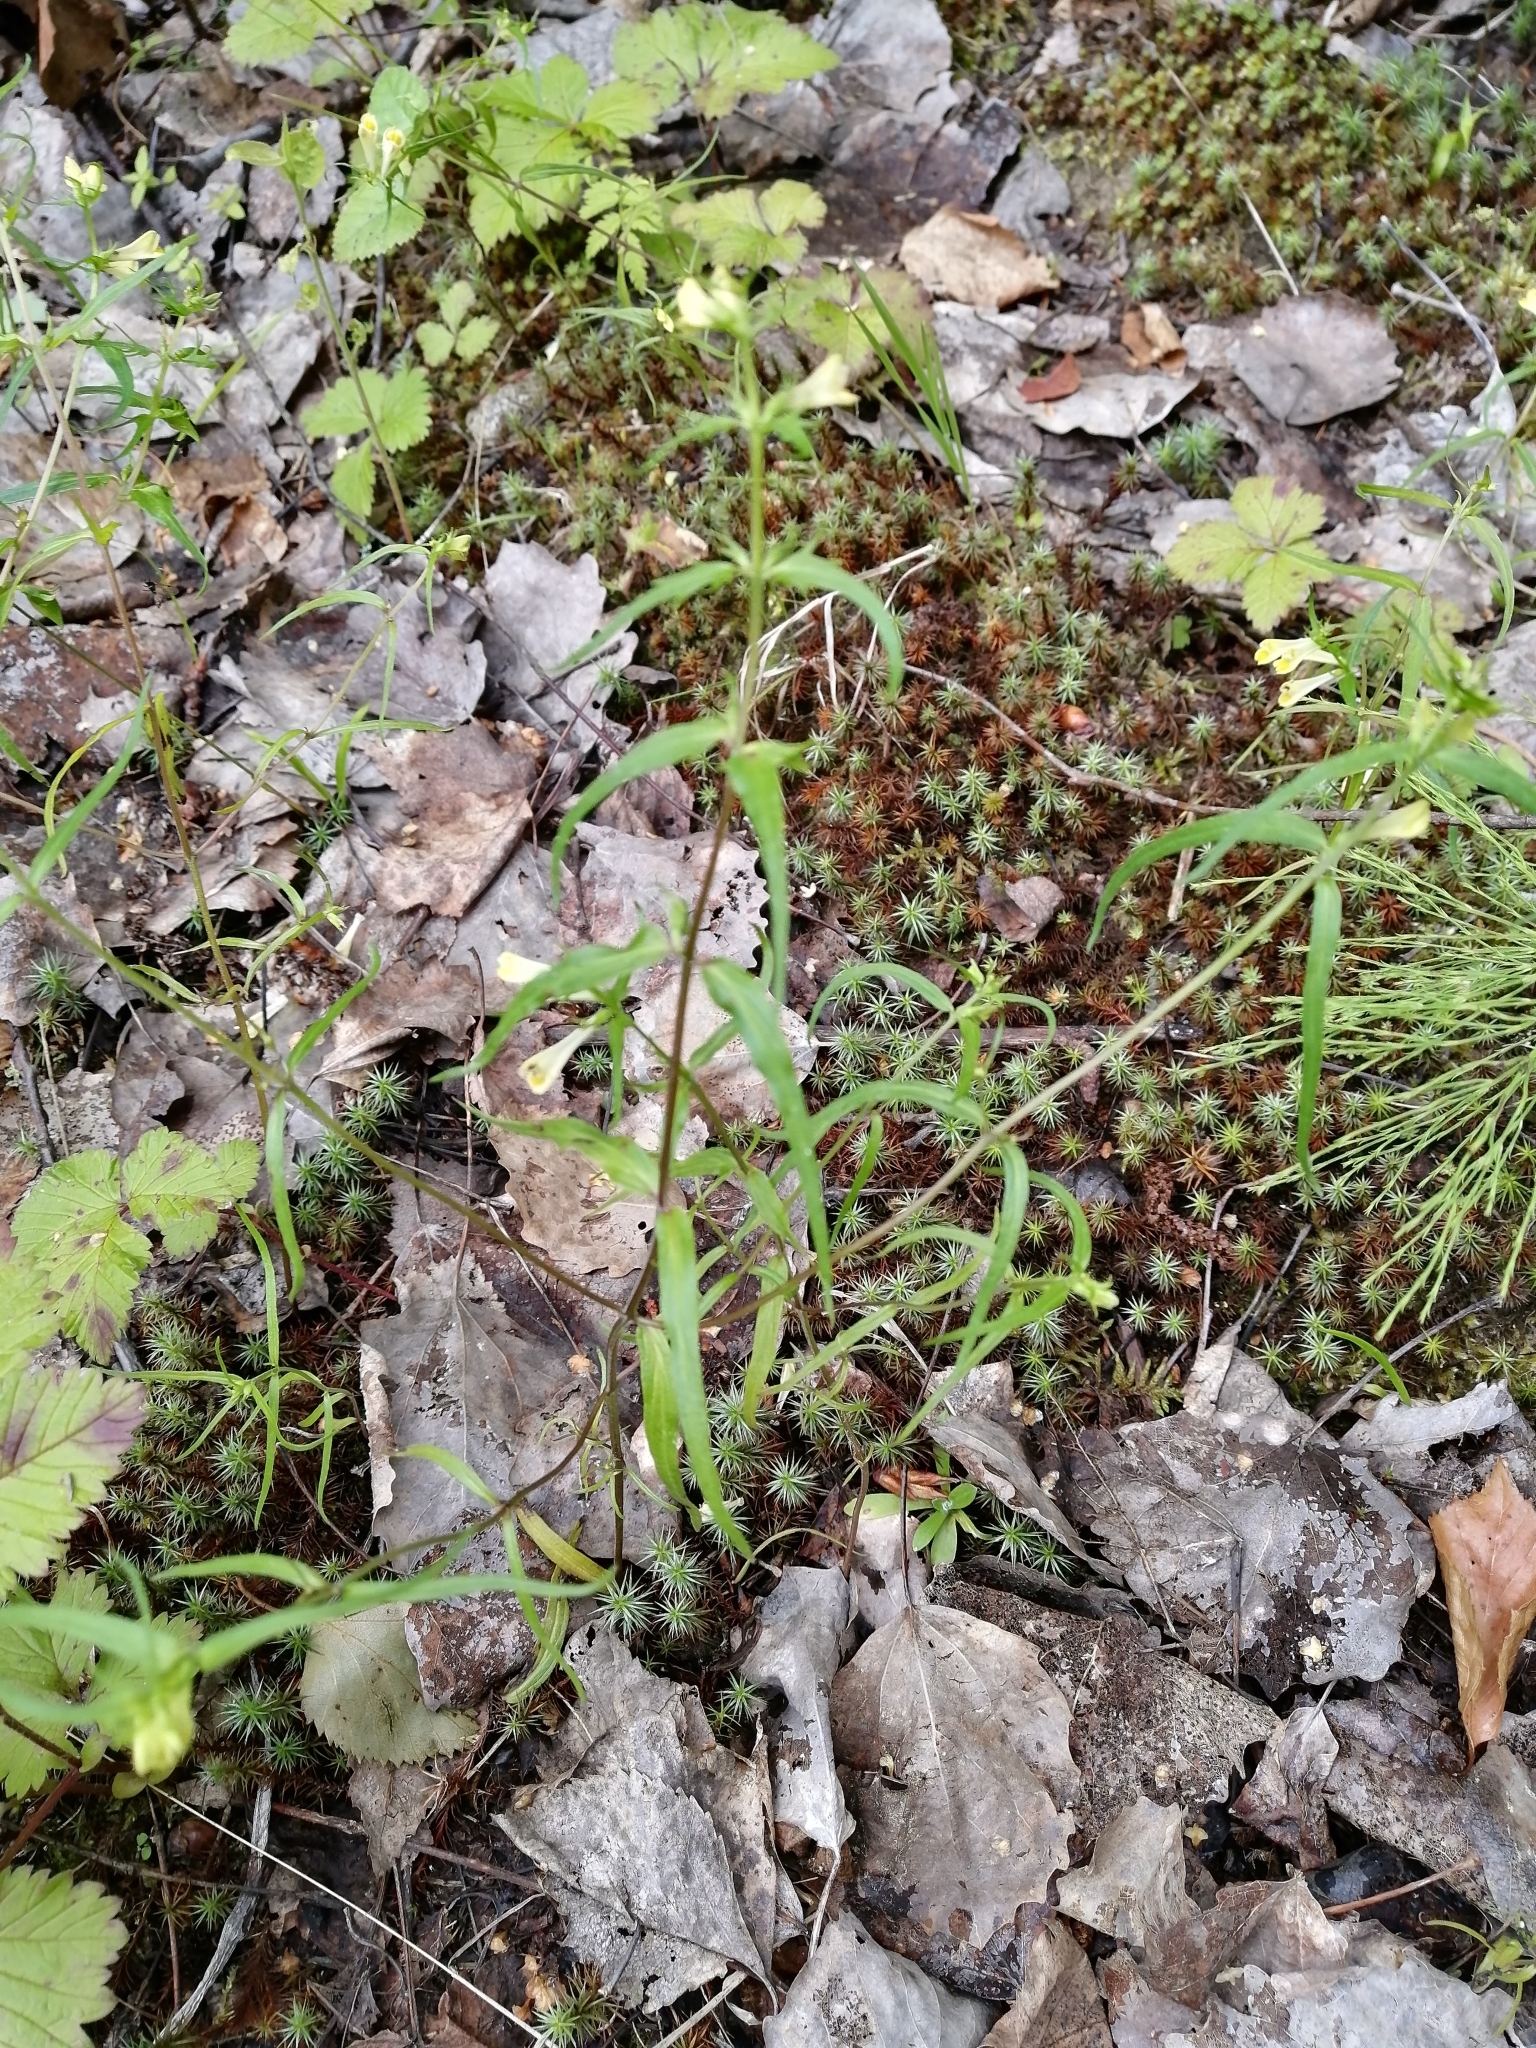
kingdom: Plantae
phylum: Tracheophyta
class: Magnoliopsida
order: Lamiales
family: Orobanchaceae
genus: Melampyrum
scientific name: Melampyrum pratense
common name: Common cow-wheat
